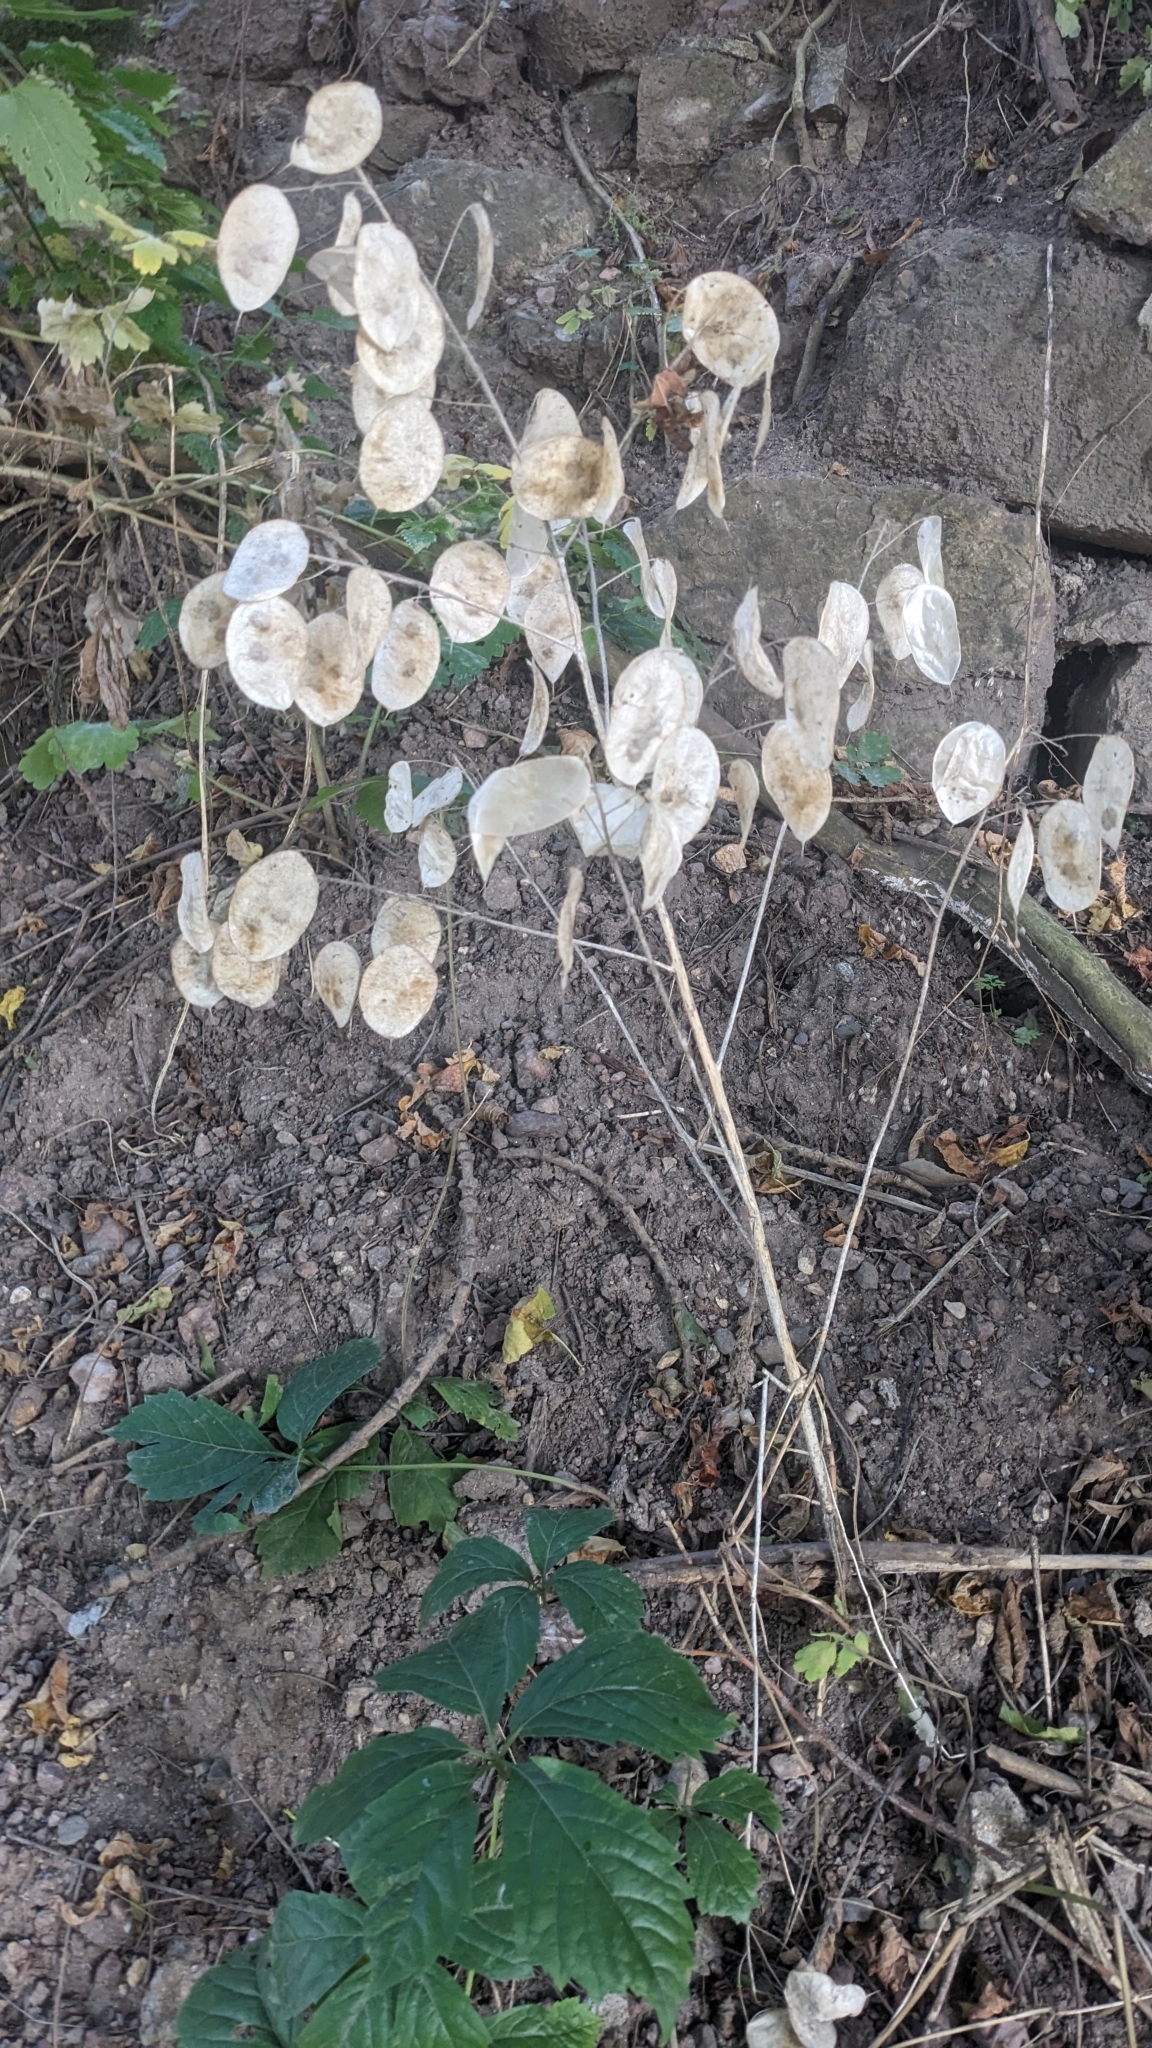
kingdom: Plantae
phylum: Tracheophyta
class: Magnoliopsida
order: Brassicales
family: Brassicaceae
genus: Lunaria
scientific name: Lunaria annua
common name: Honesty
